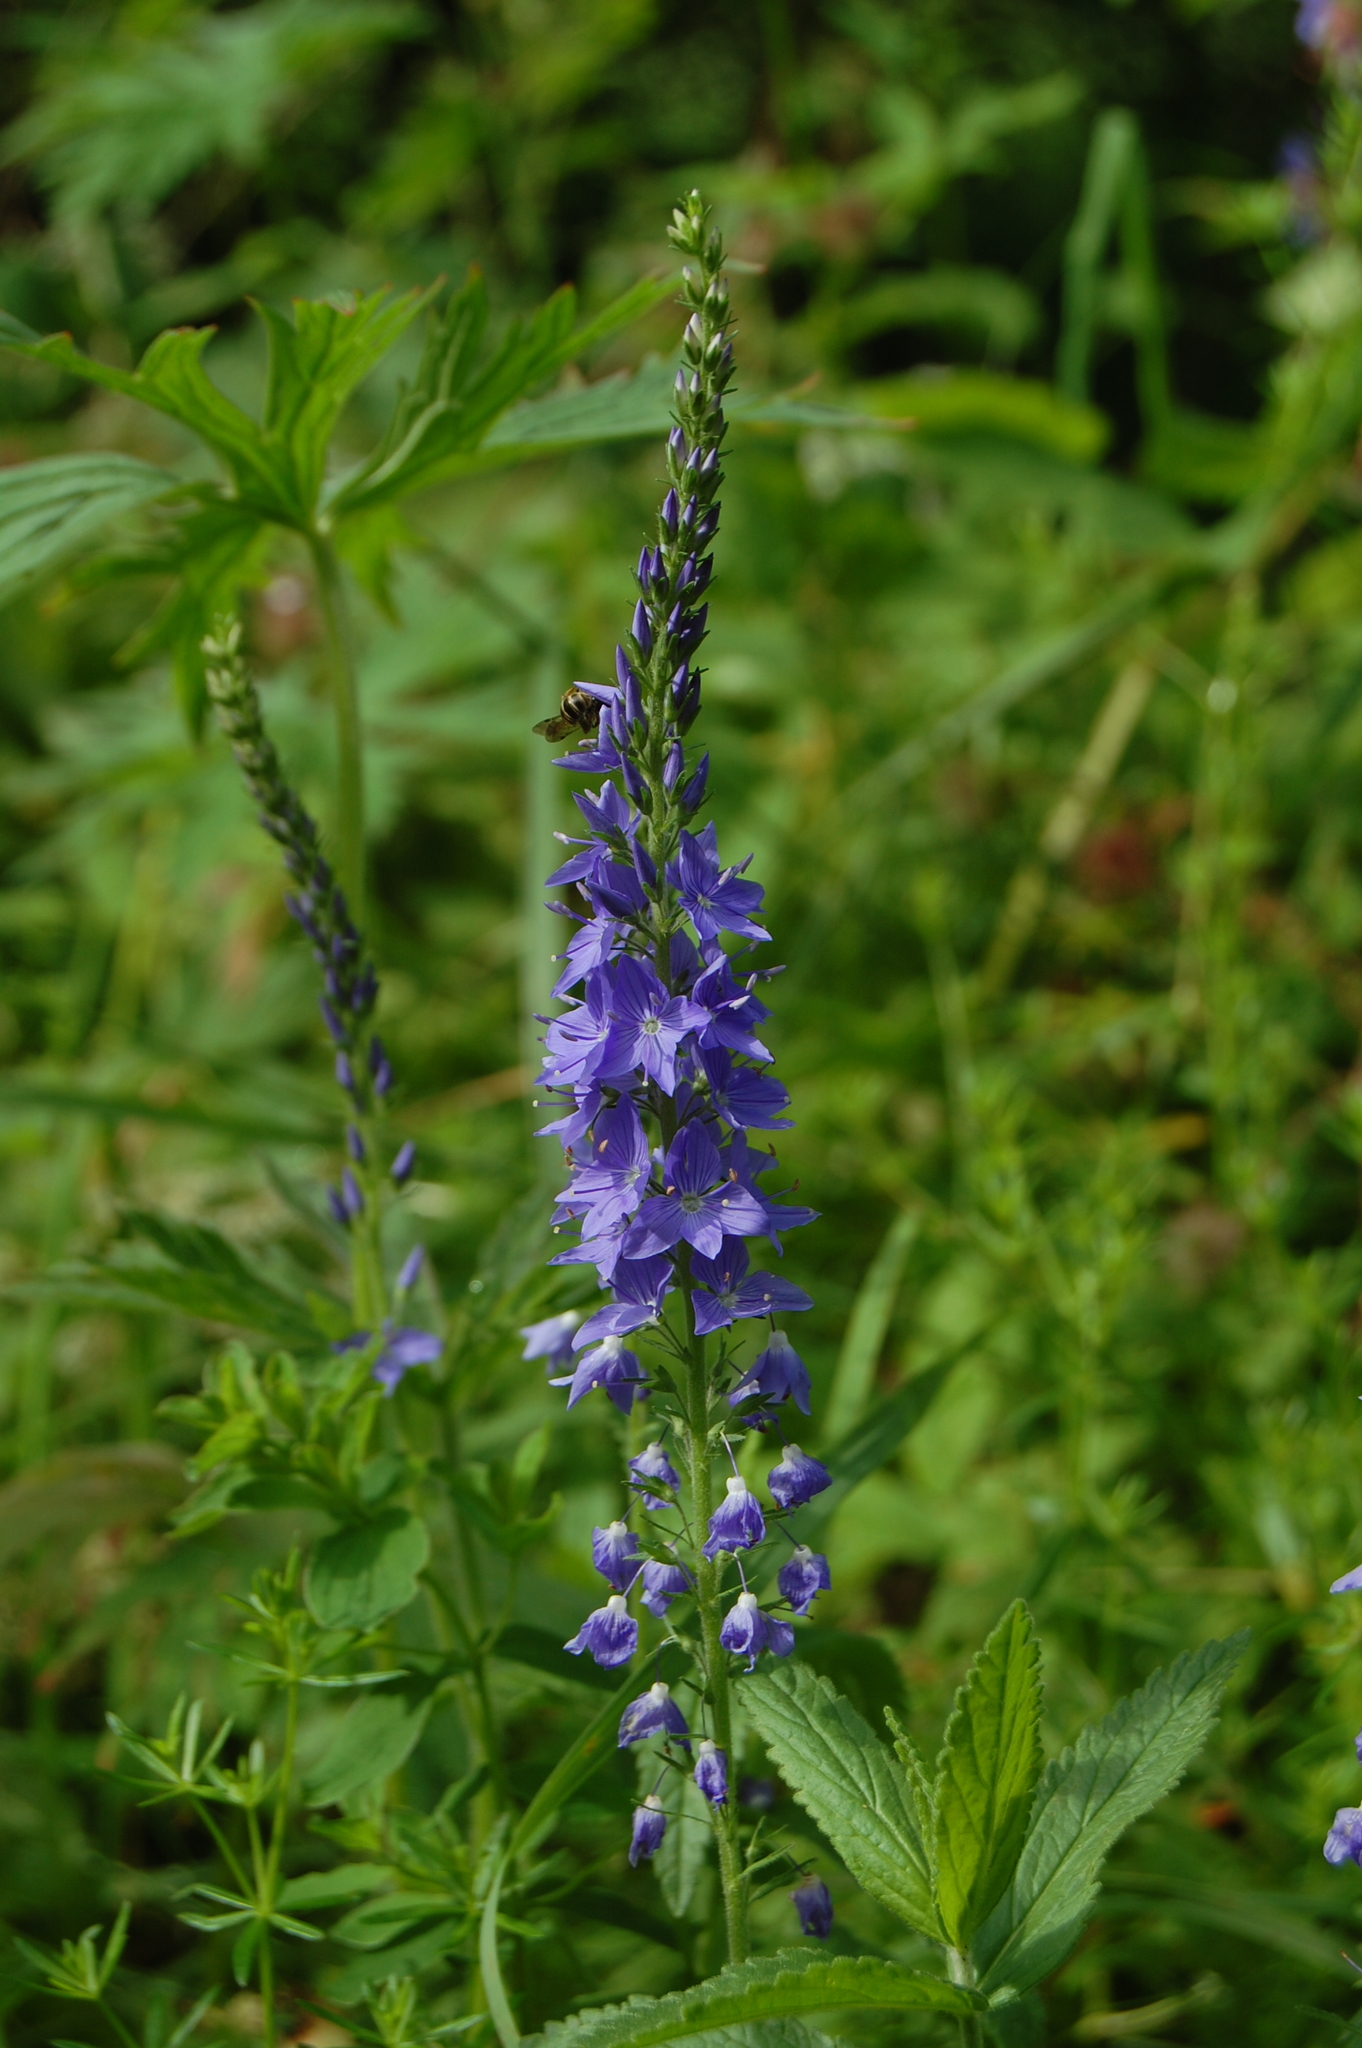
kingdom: Plantae
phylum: Tracheophyta
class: Magnoliopsida
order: Lamiales
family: Plantaginaceae
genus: Veronica
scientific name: Veronica teucrium
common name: Large speedwell
